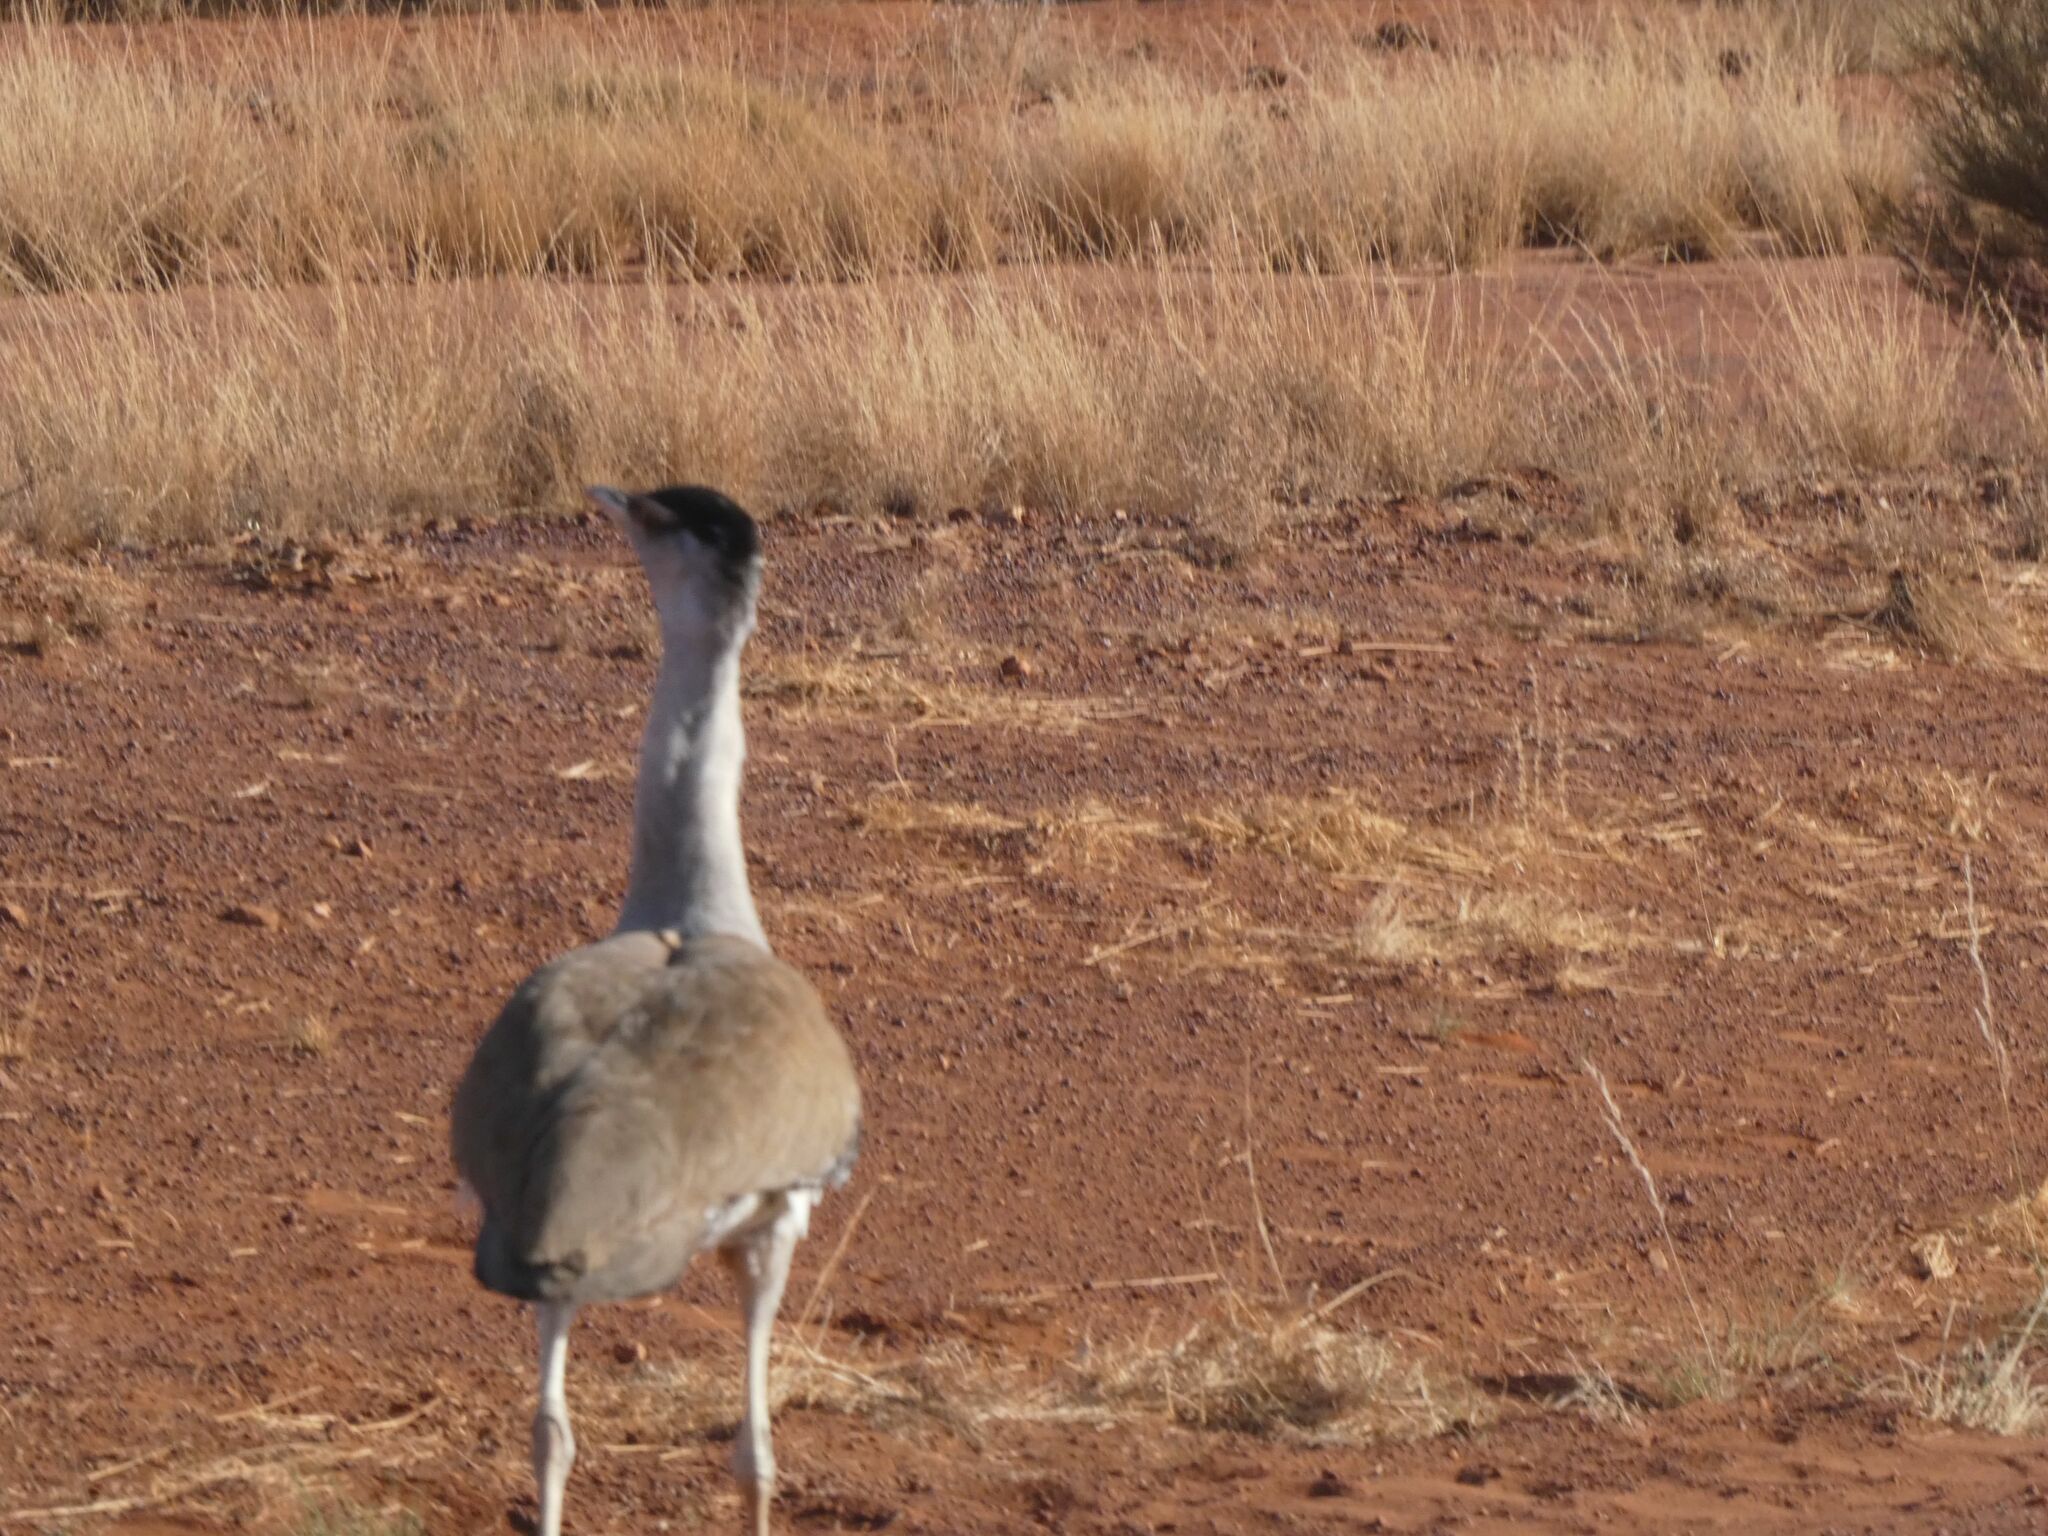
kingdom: Animalia
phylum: Chordata
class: Aves
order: Otidiformes
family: Otididae
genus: Ardeotis
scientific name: Ardeotis australis
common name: Australian bustard
